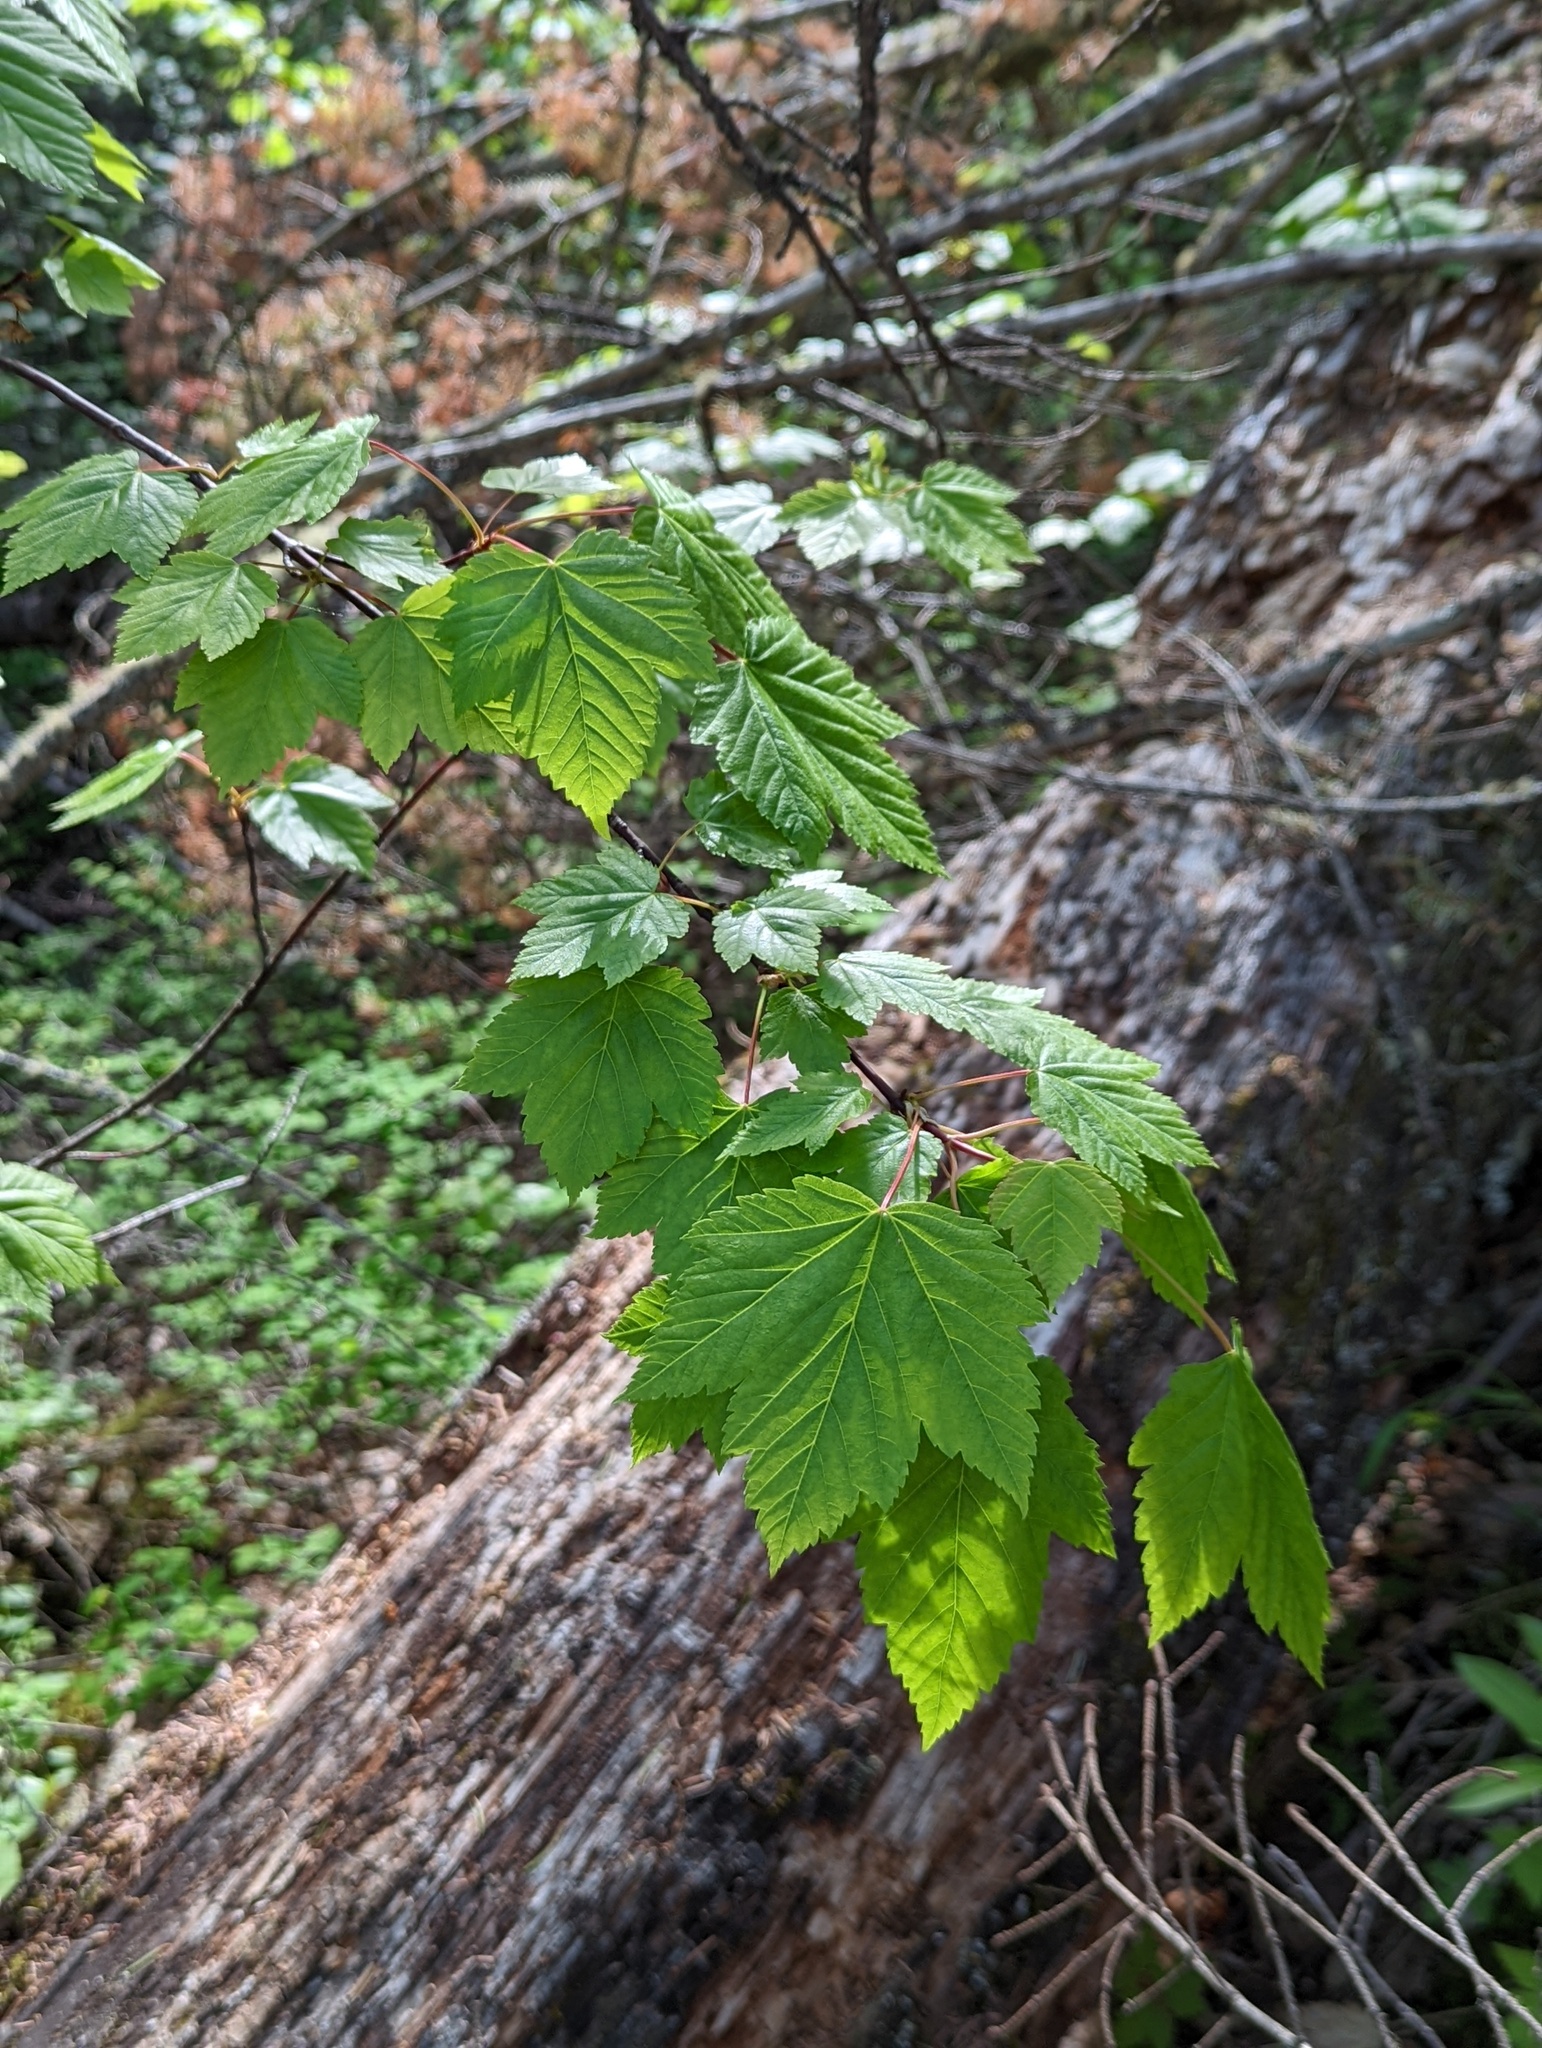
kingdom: Plantae
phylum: Tracheophyta
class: Magnoliopsida
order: Sapindales
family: Sapindaceae
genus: Acer
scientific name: Acer glabrum
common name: Rocky mountain maple
